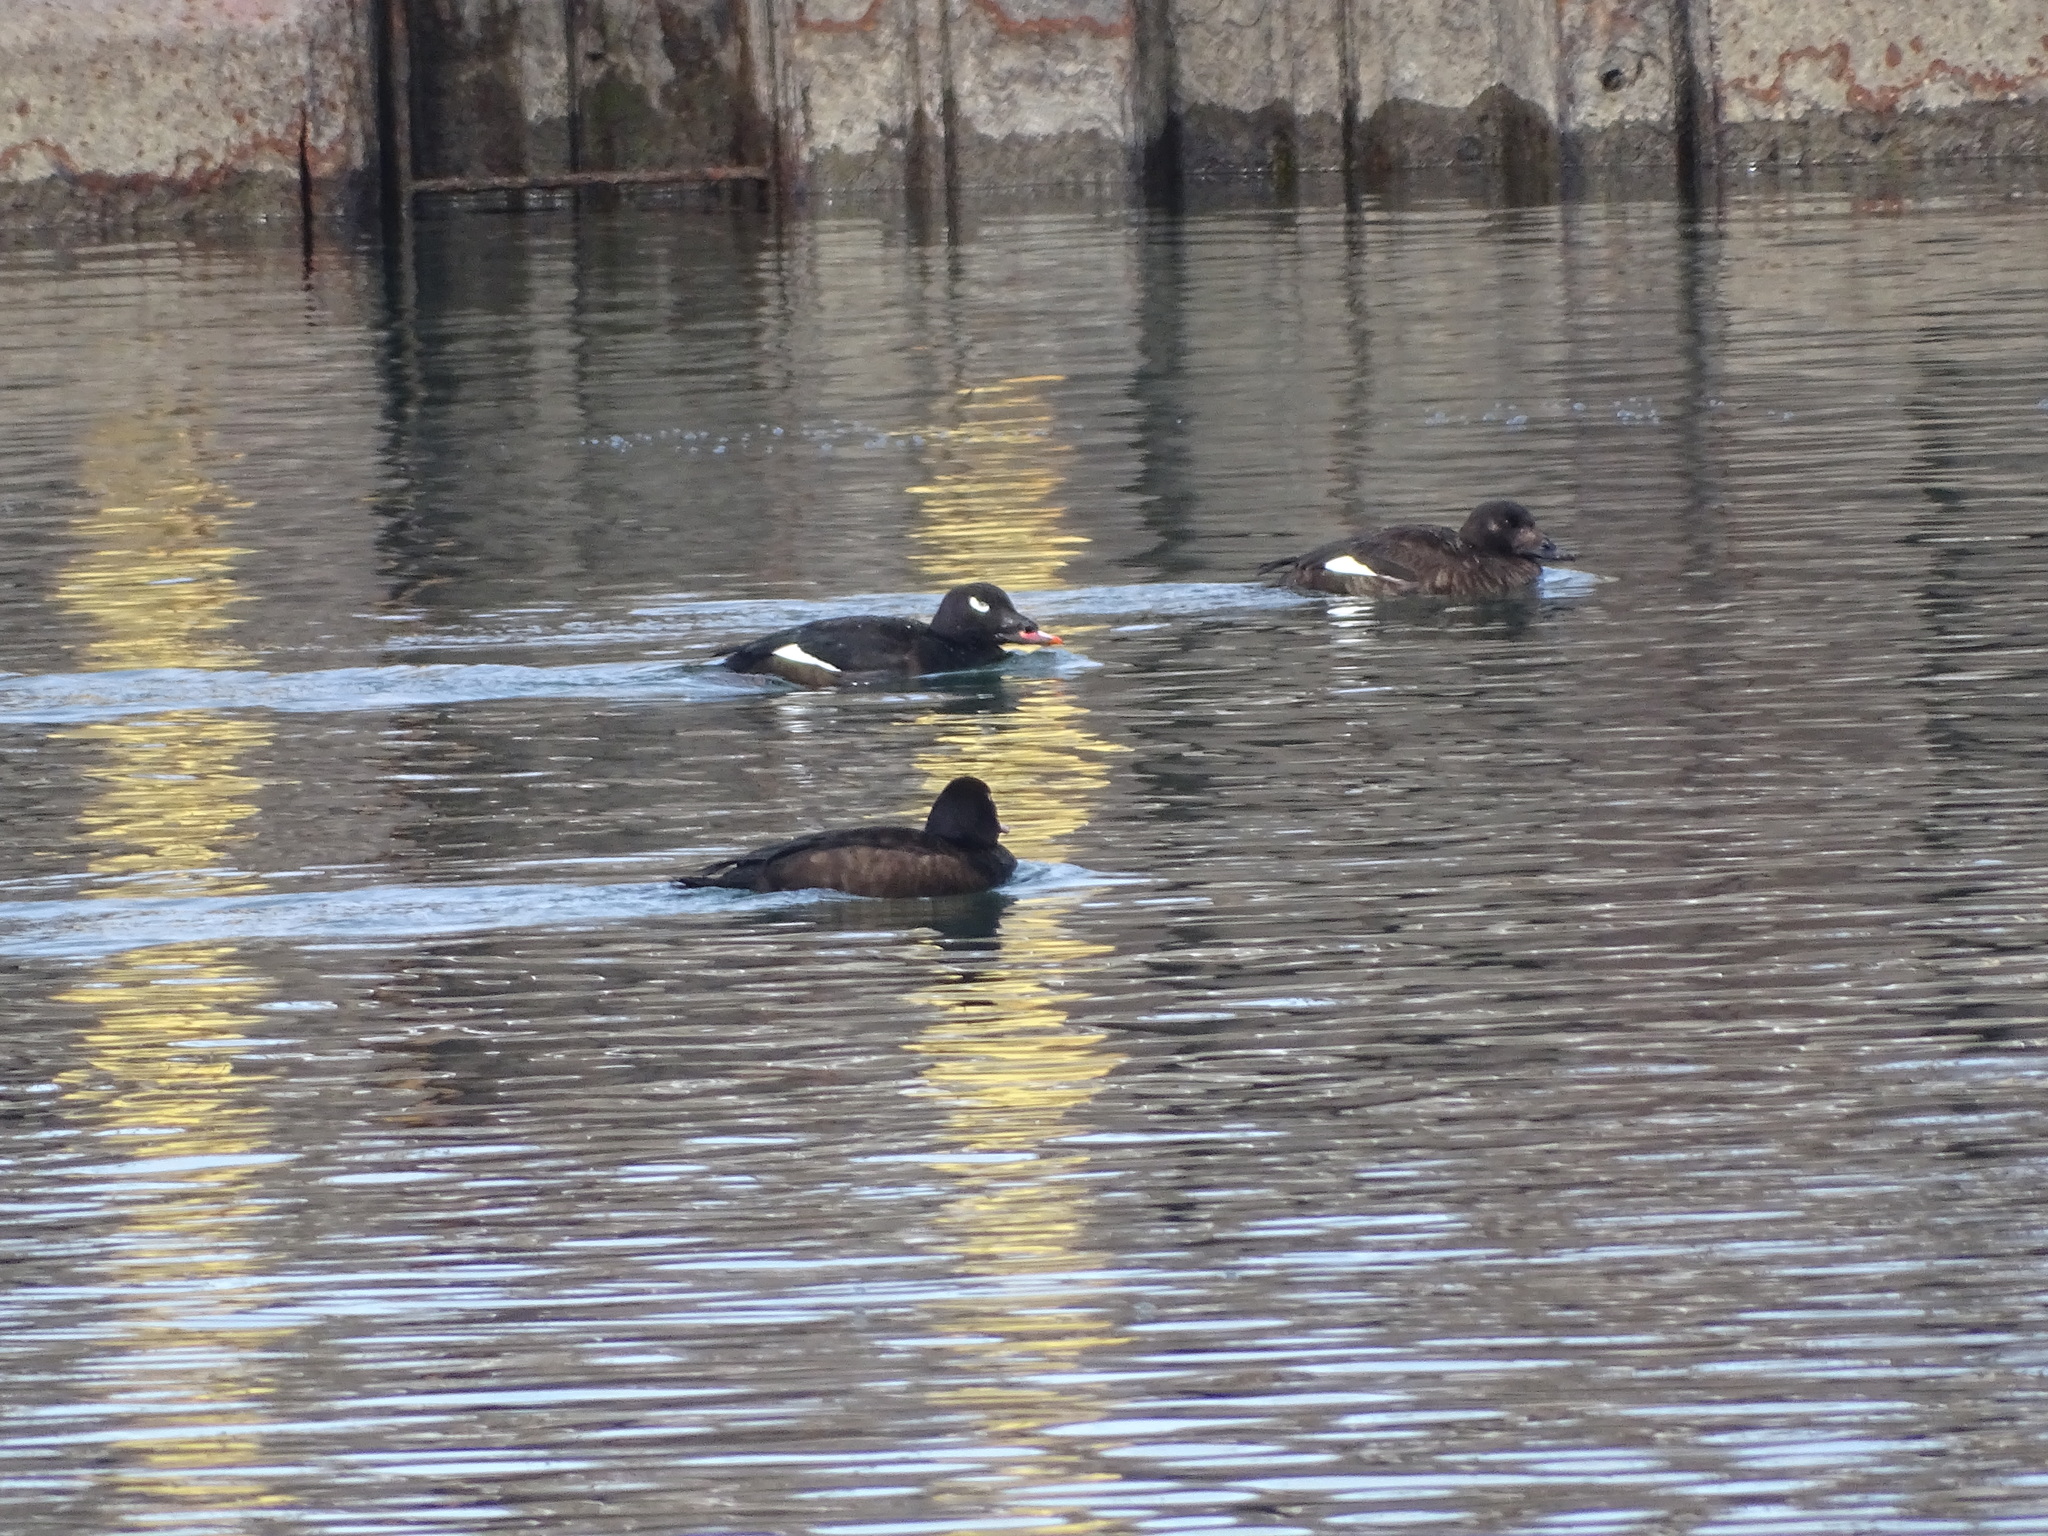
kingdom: Animalia
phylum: Chordata
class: Aves
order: Anseriformes
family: Anatidae
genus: Melanitta
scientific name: Melanitta deglandi
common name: White-winged scoter
